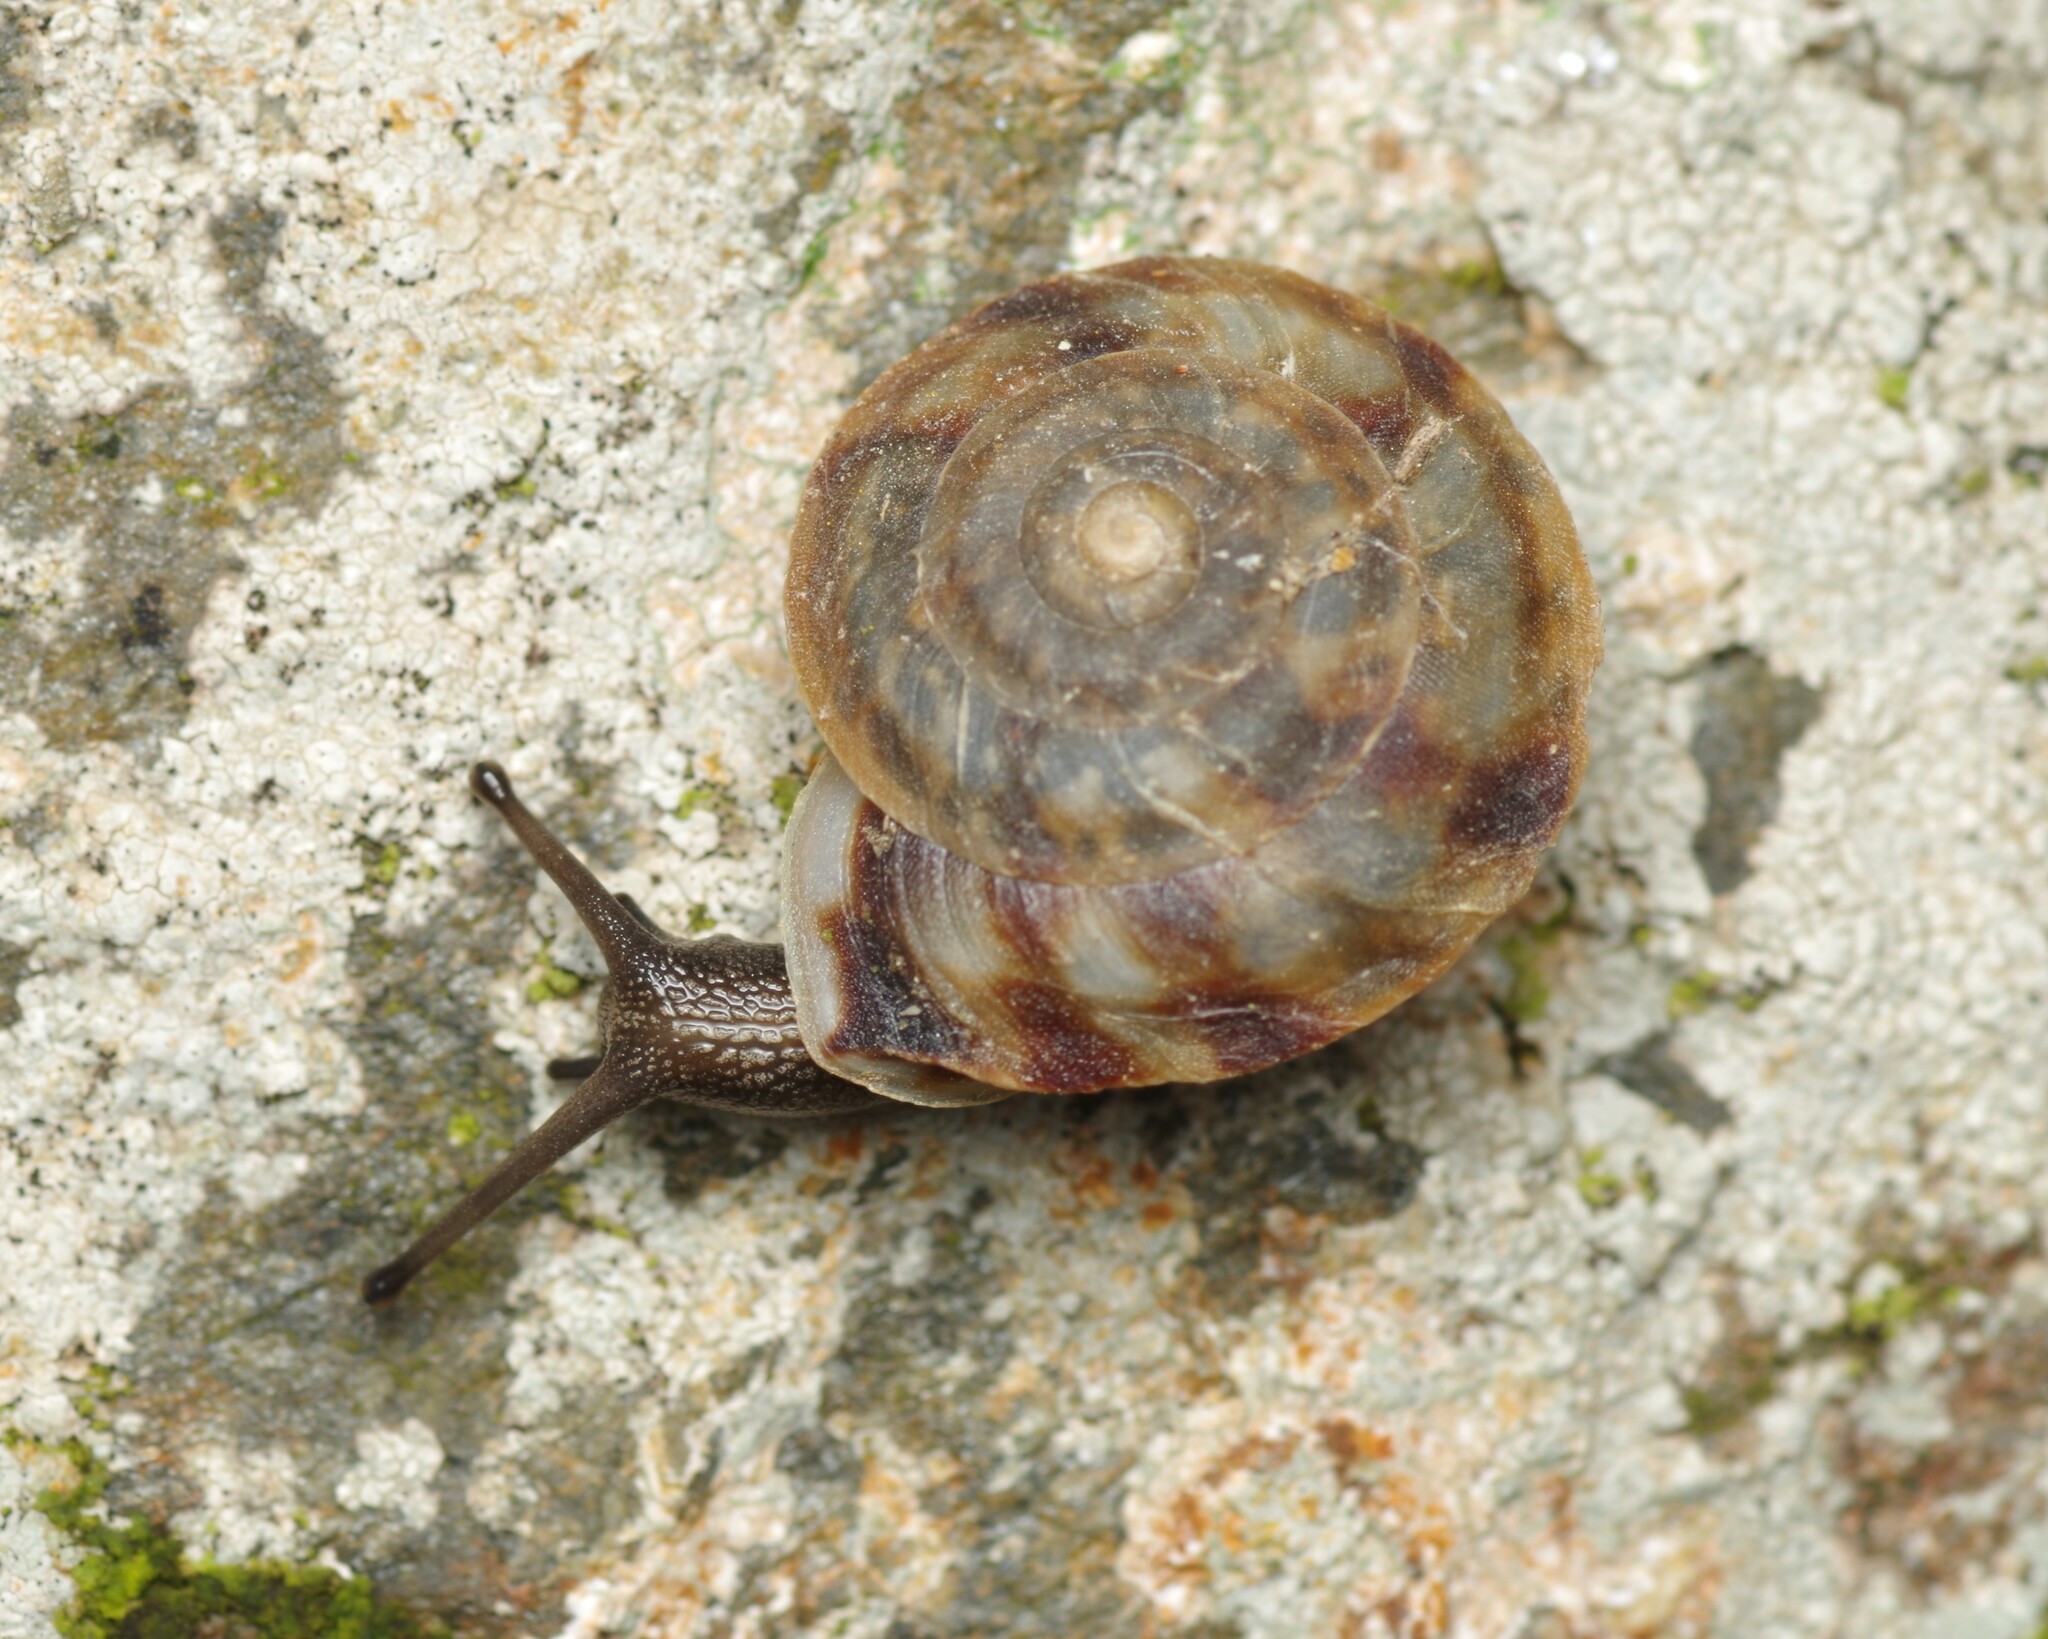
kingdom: Animalia
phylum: Mollusca
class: Gastropoda
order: Stylommatophora
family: Helicidae
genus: Helicigona
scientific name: Helicigona lapicida
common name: Lapidary snail
